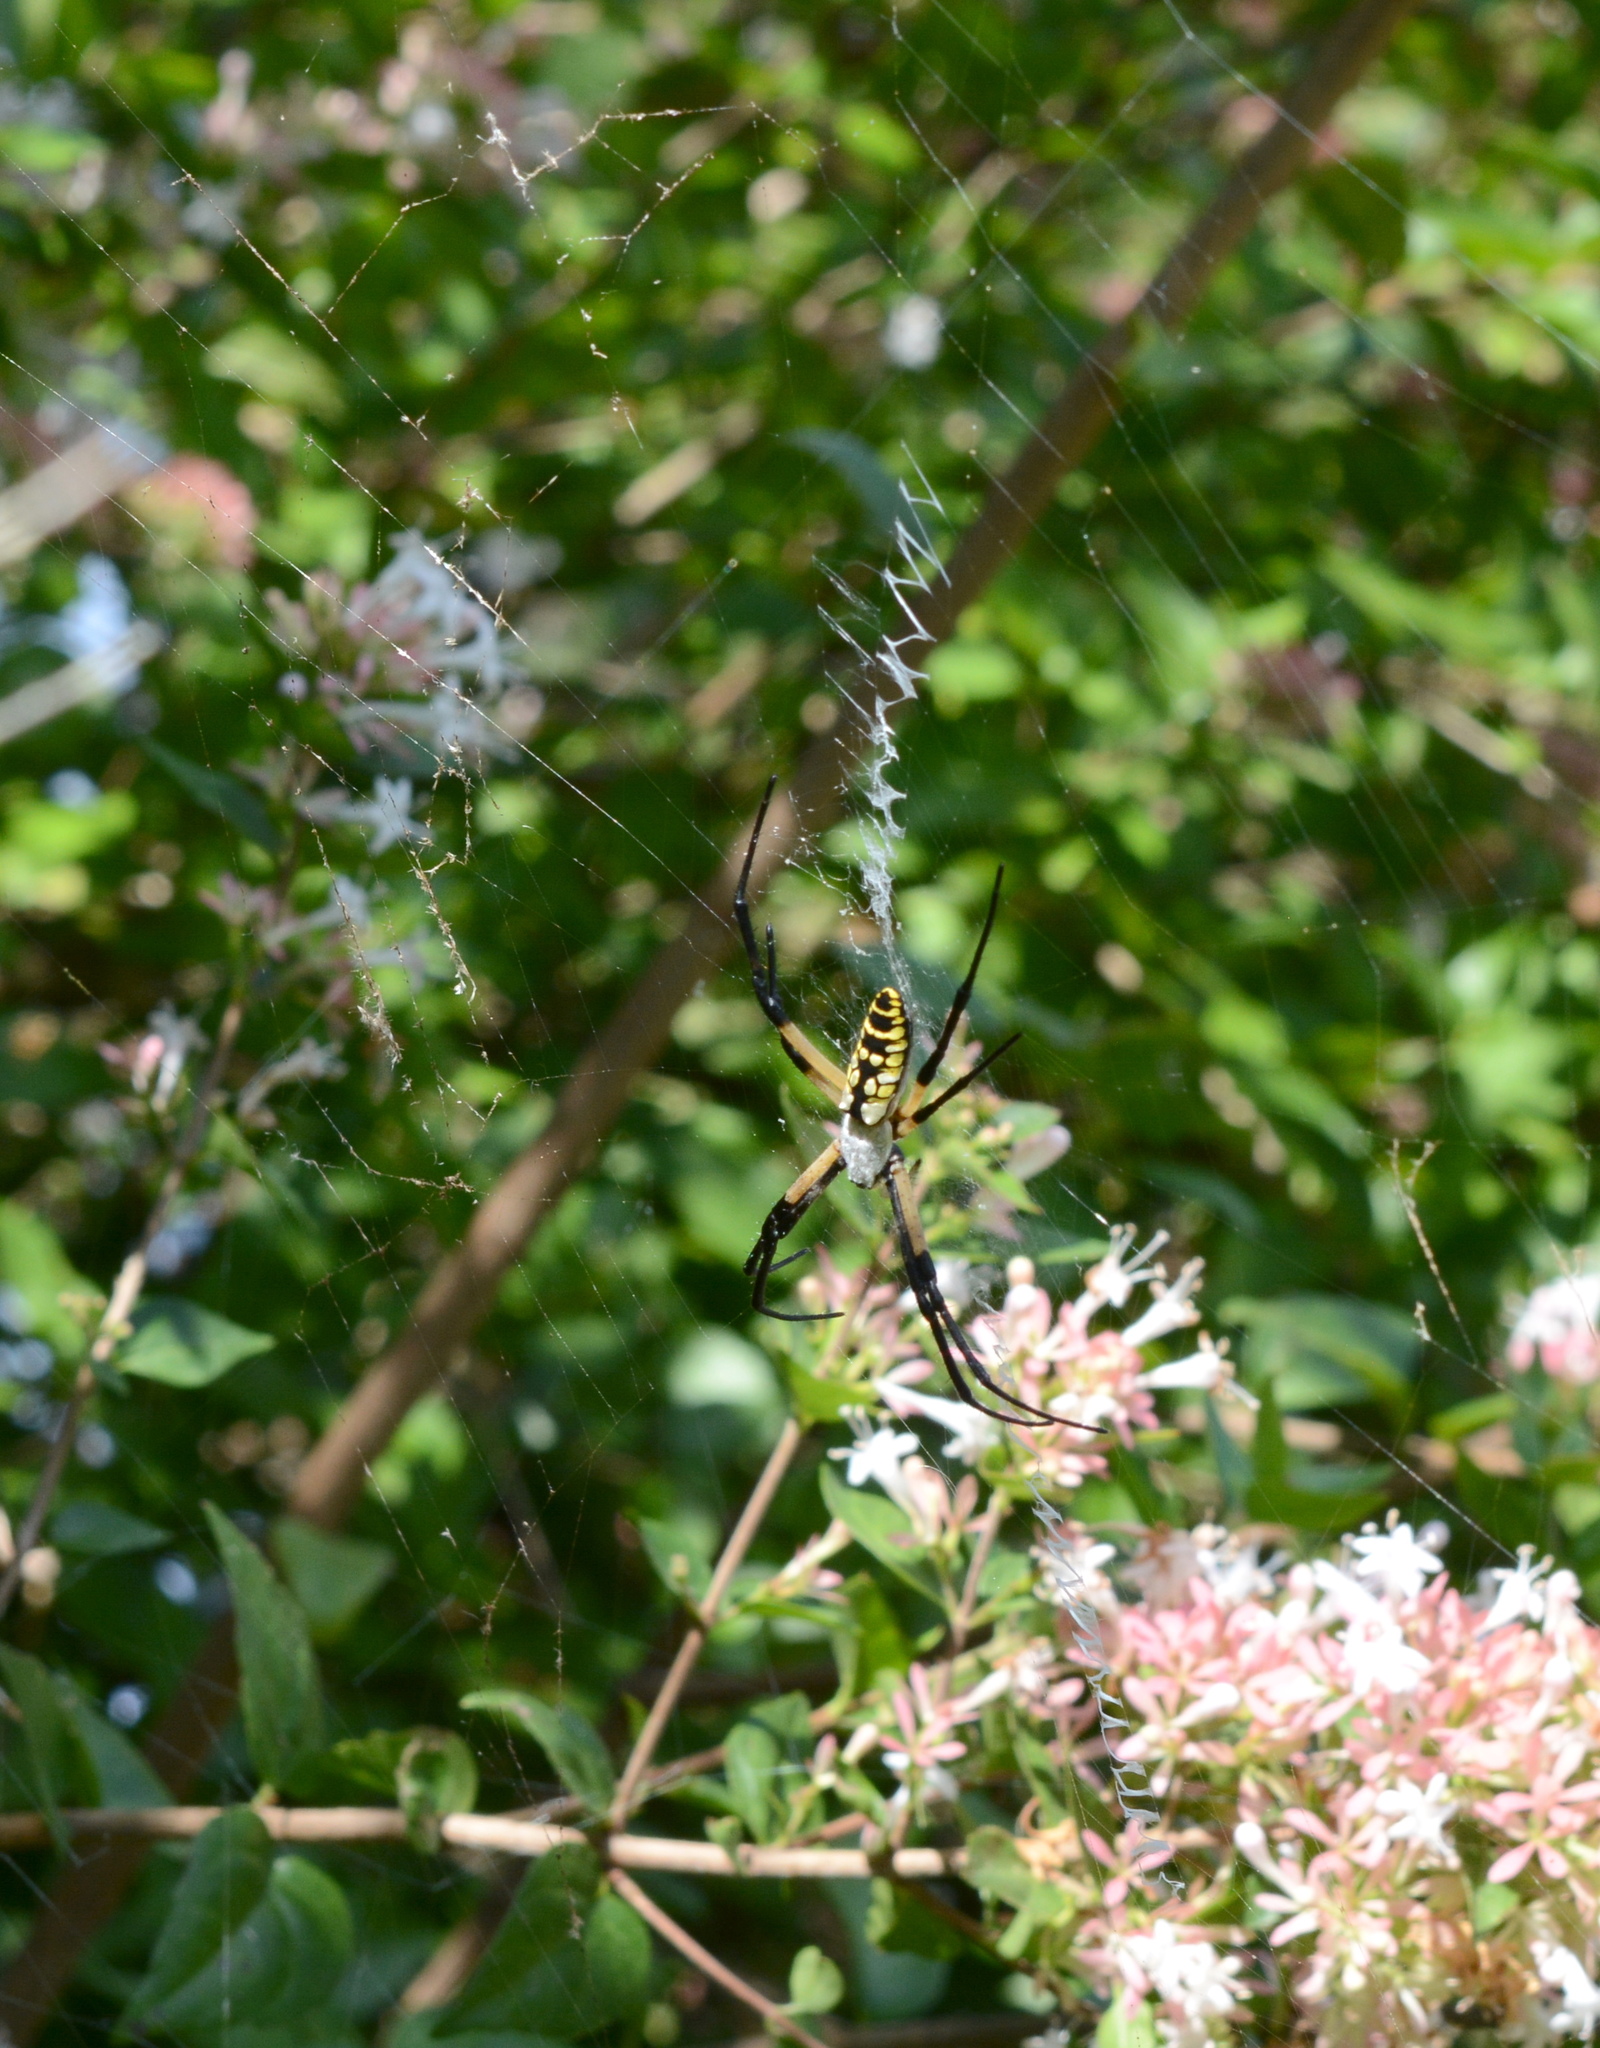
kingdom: Animalia
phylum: Arthropoda
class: Arachnida
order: Araneae
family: Araneidae
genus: Argiope
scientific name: Argiope aurantia
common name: Orb weavers
